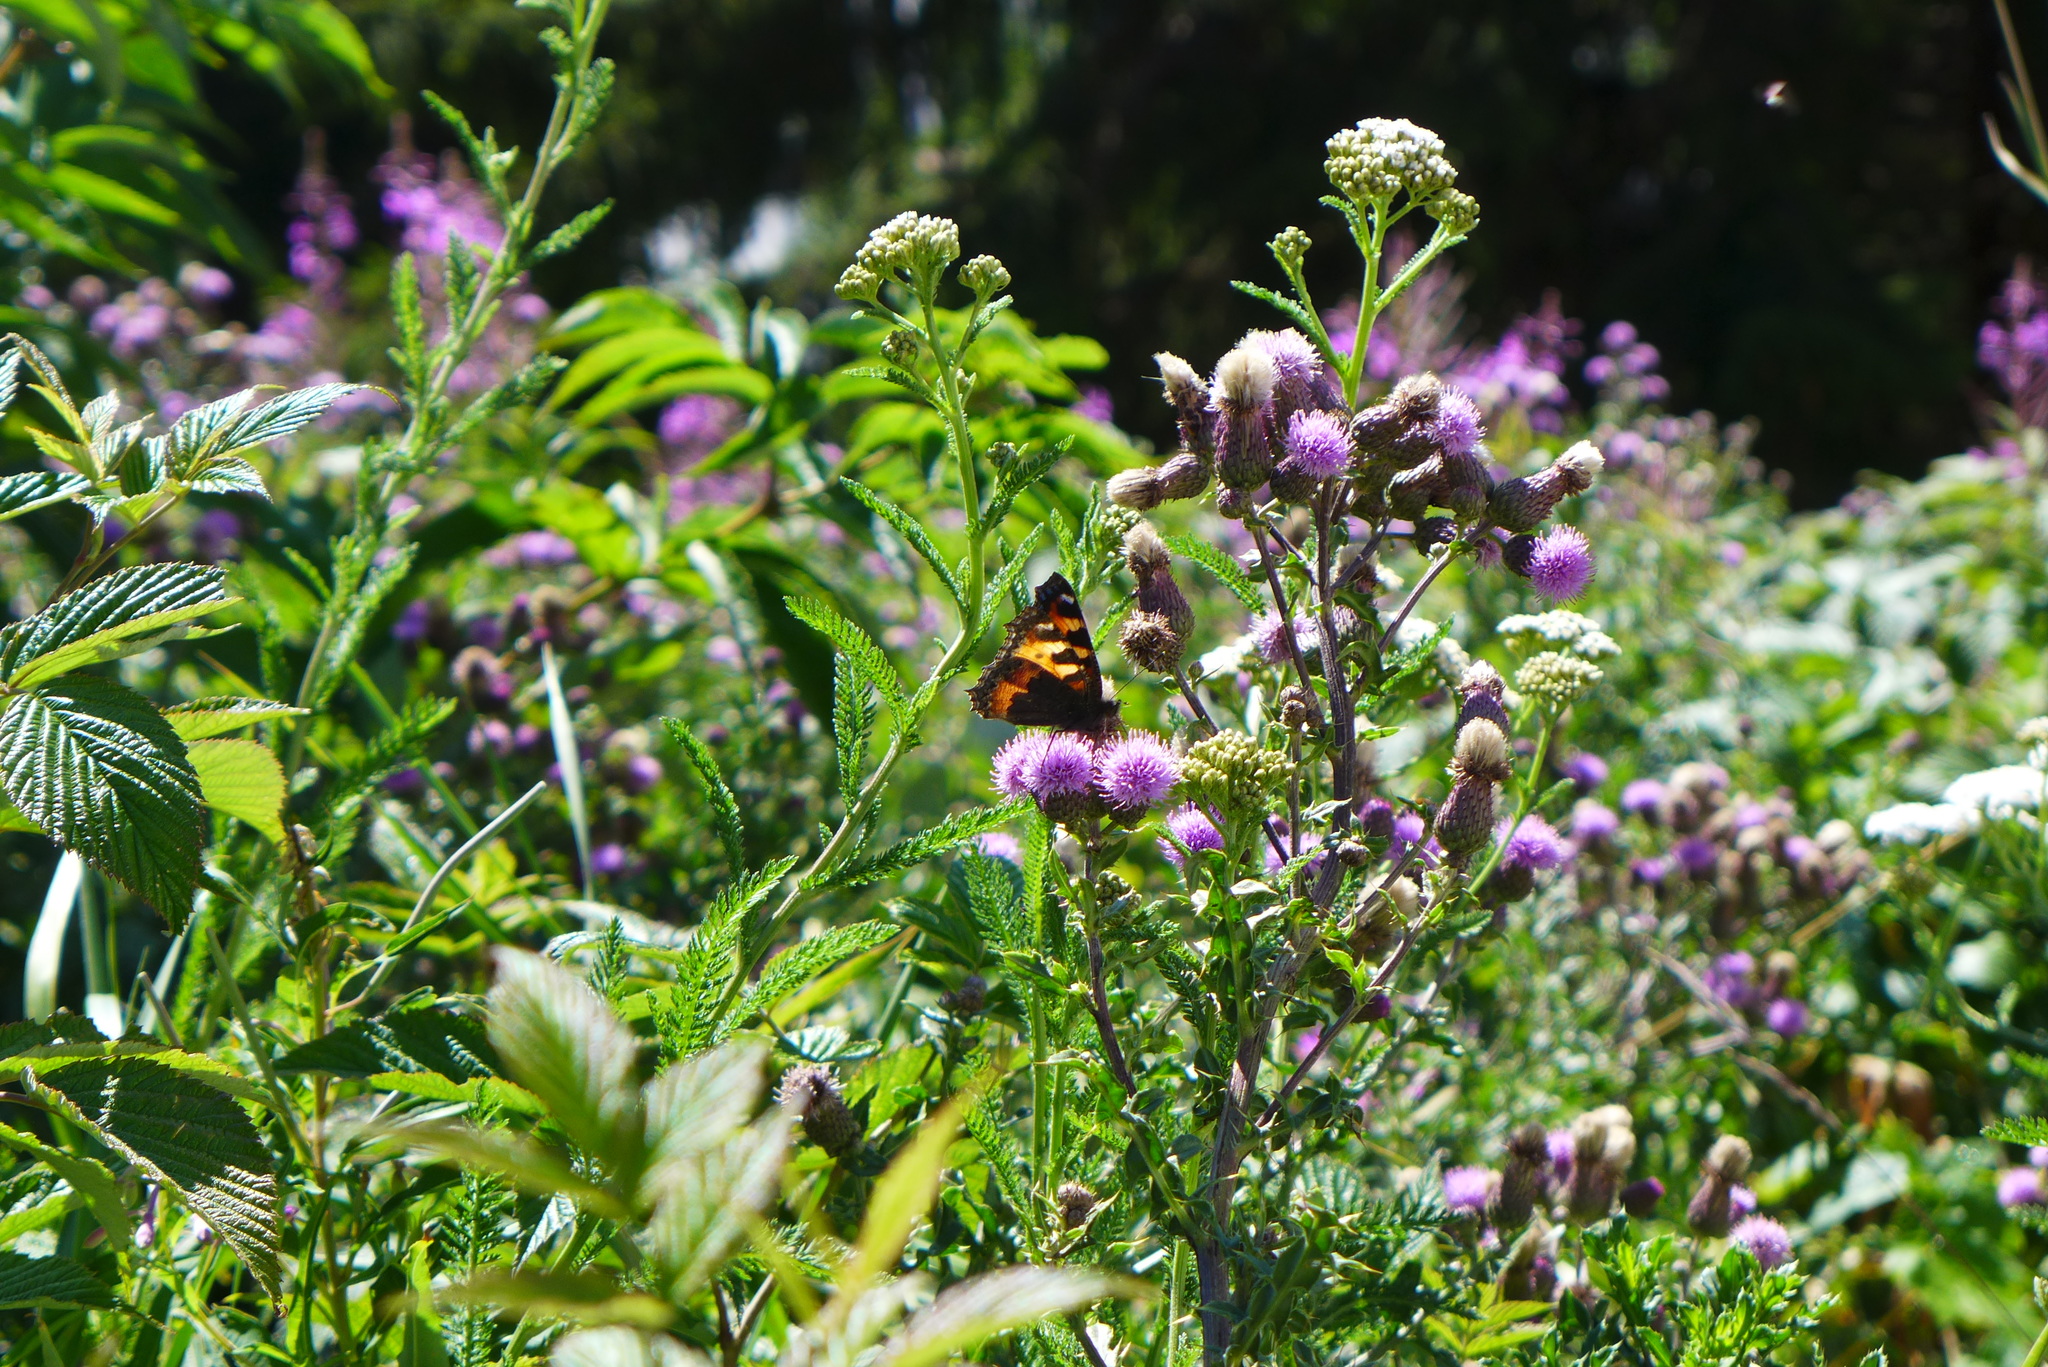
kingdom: Animalia
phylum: Arthropoda
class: Insecta
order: Lepidoptera
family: Nymphalidae
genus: Aglais
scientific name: Aglais urticae
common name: Small tortoiseshell
